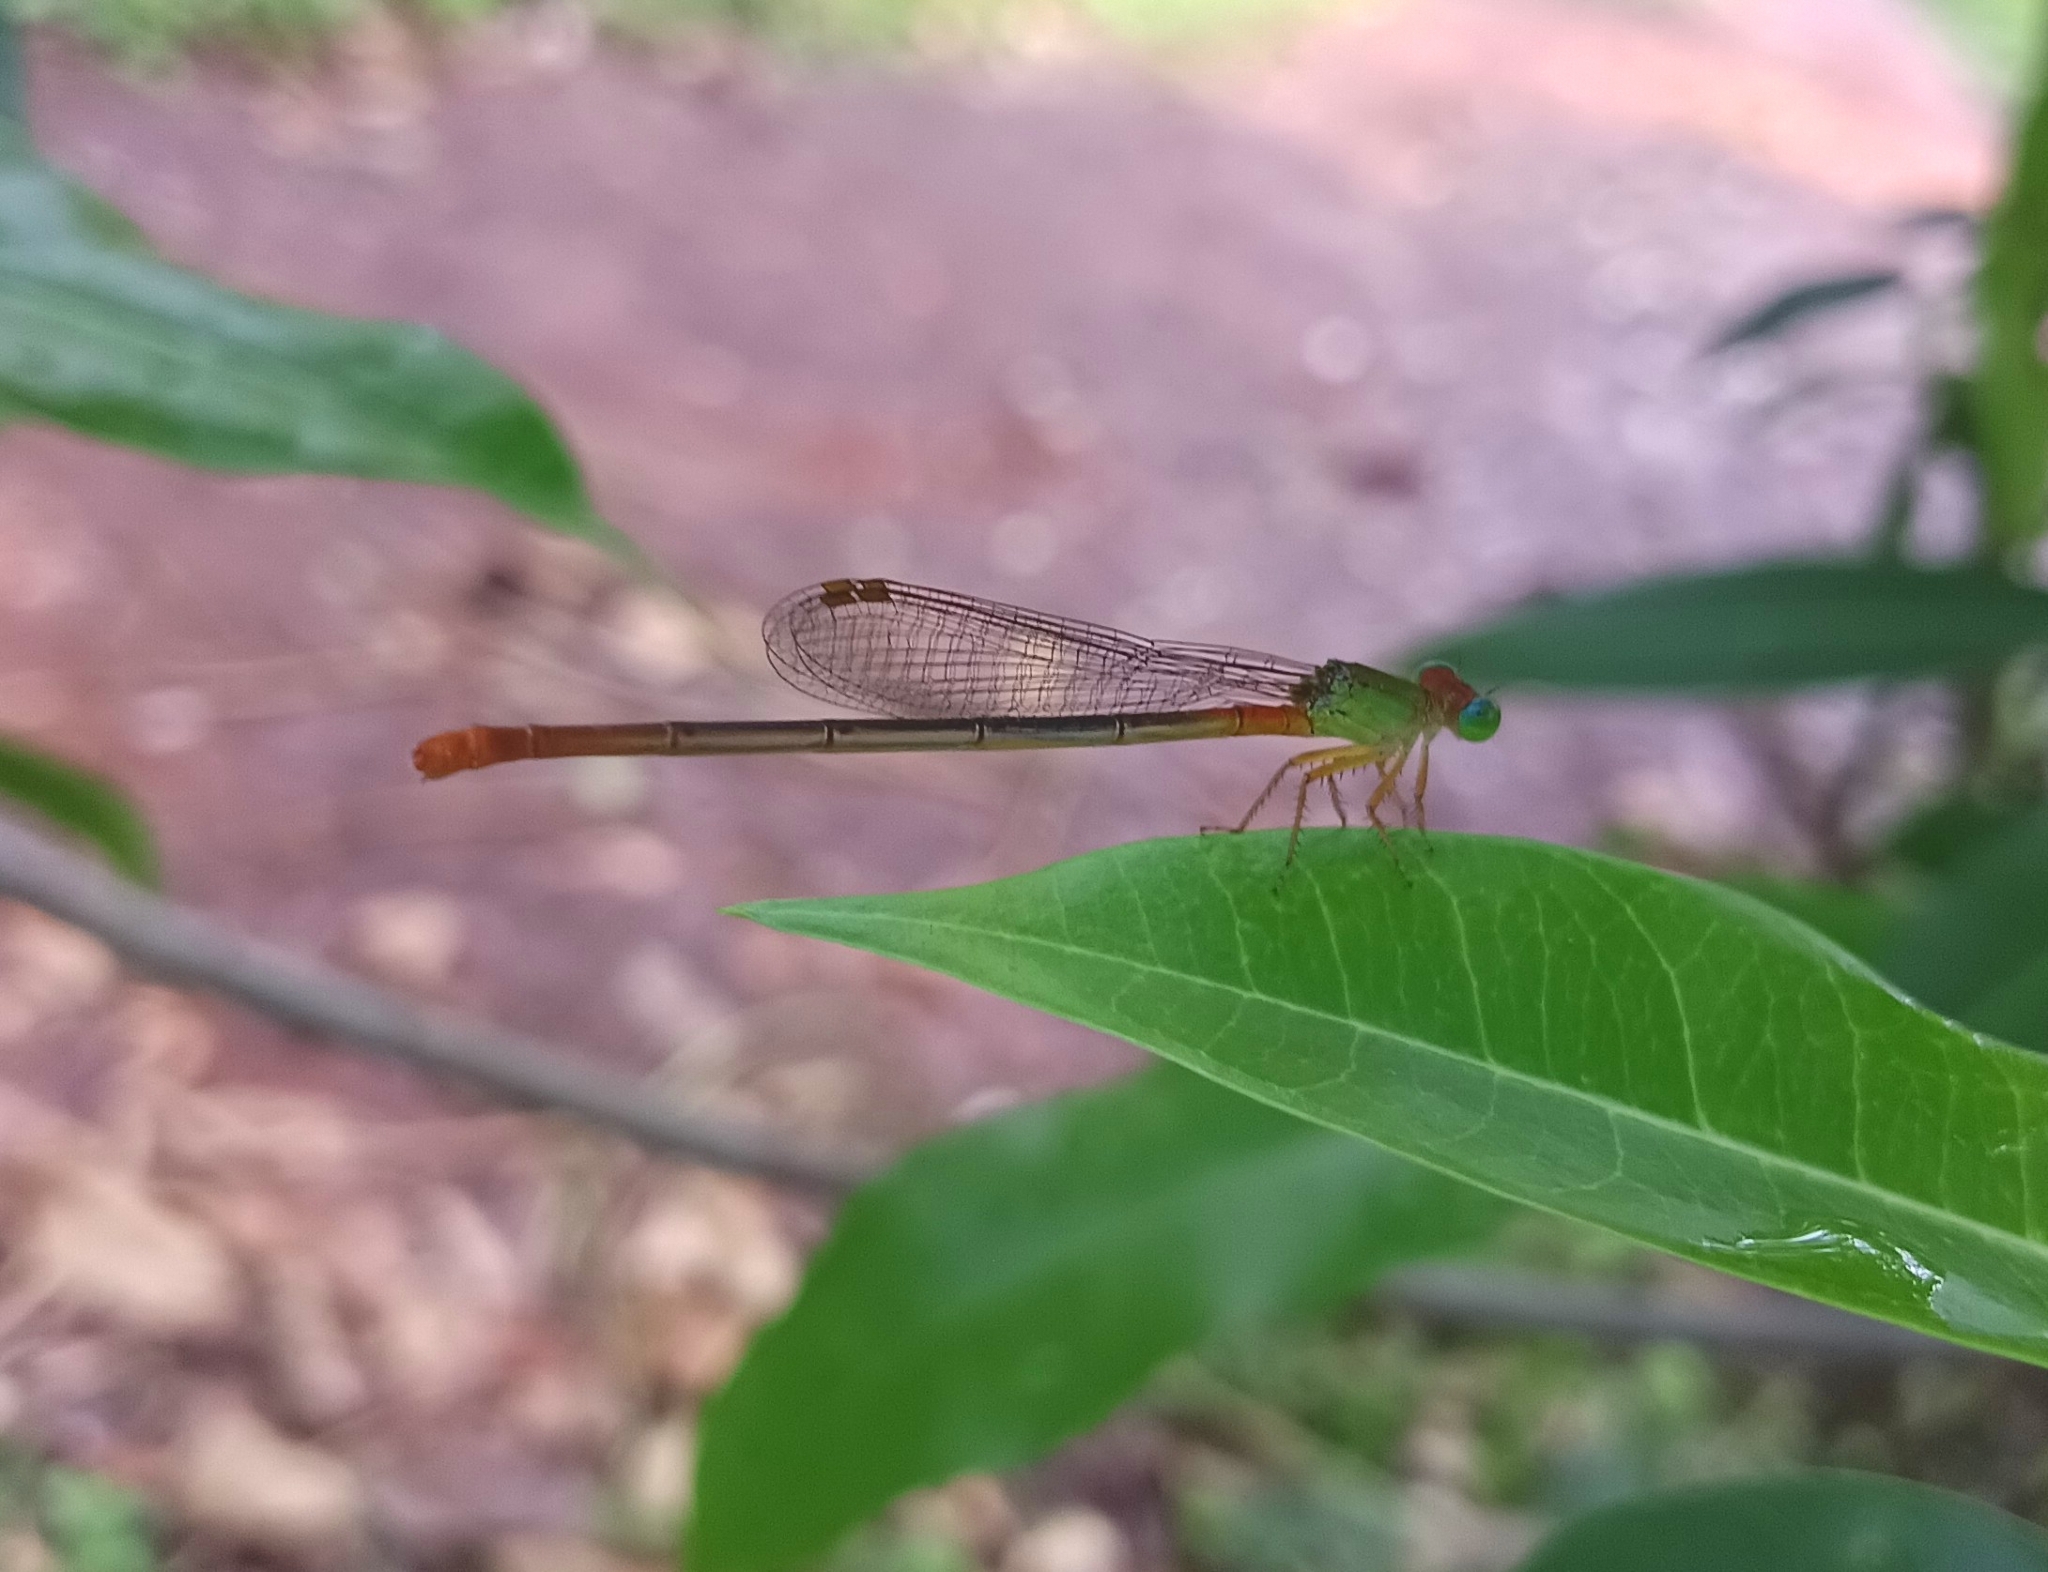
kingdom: Animalia
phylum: Arthropoda
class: Insecta
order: Odonata
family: Coenagrionidae
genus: Ceriagrion
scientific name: Ceriagrion cerinorubellum
